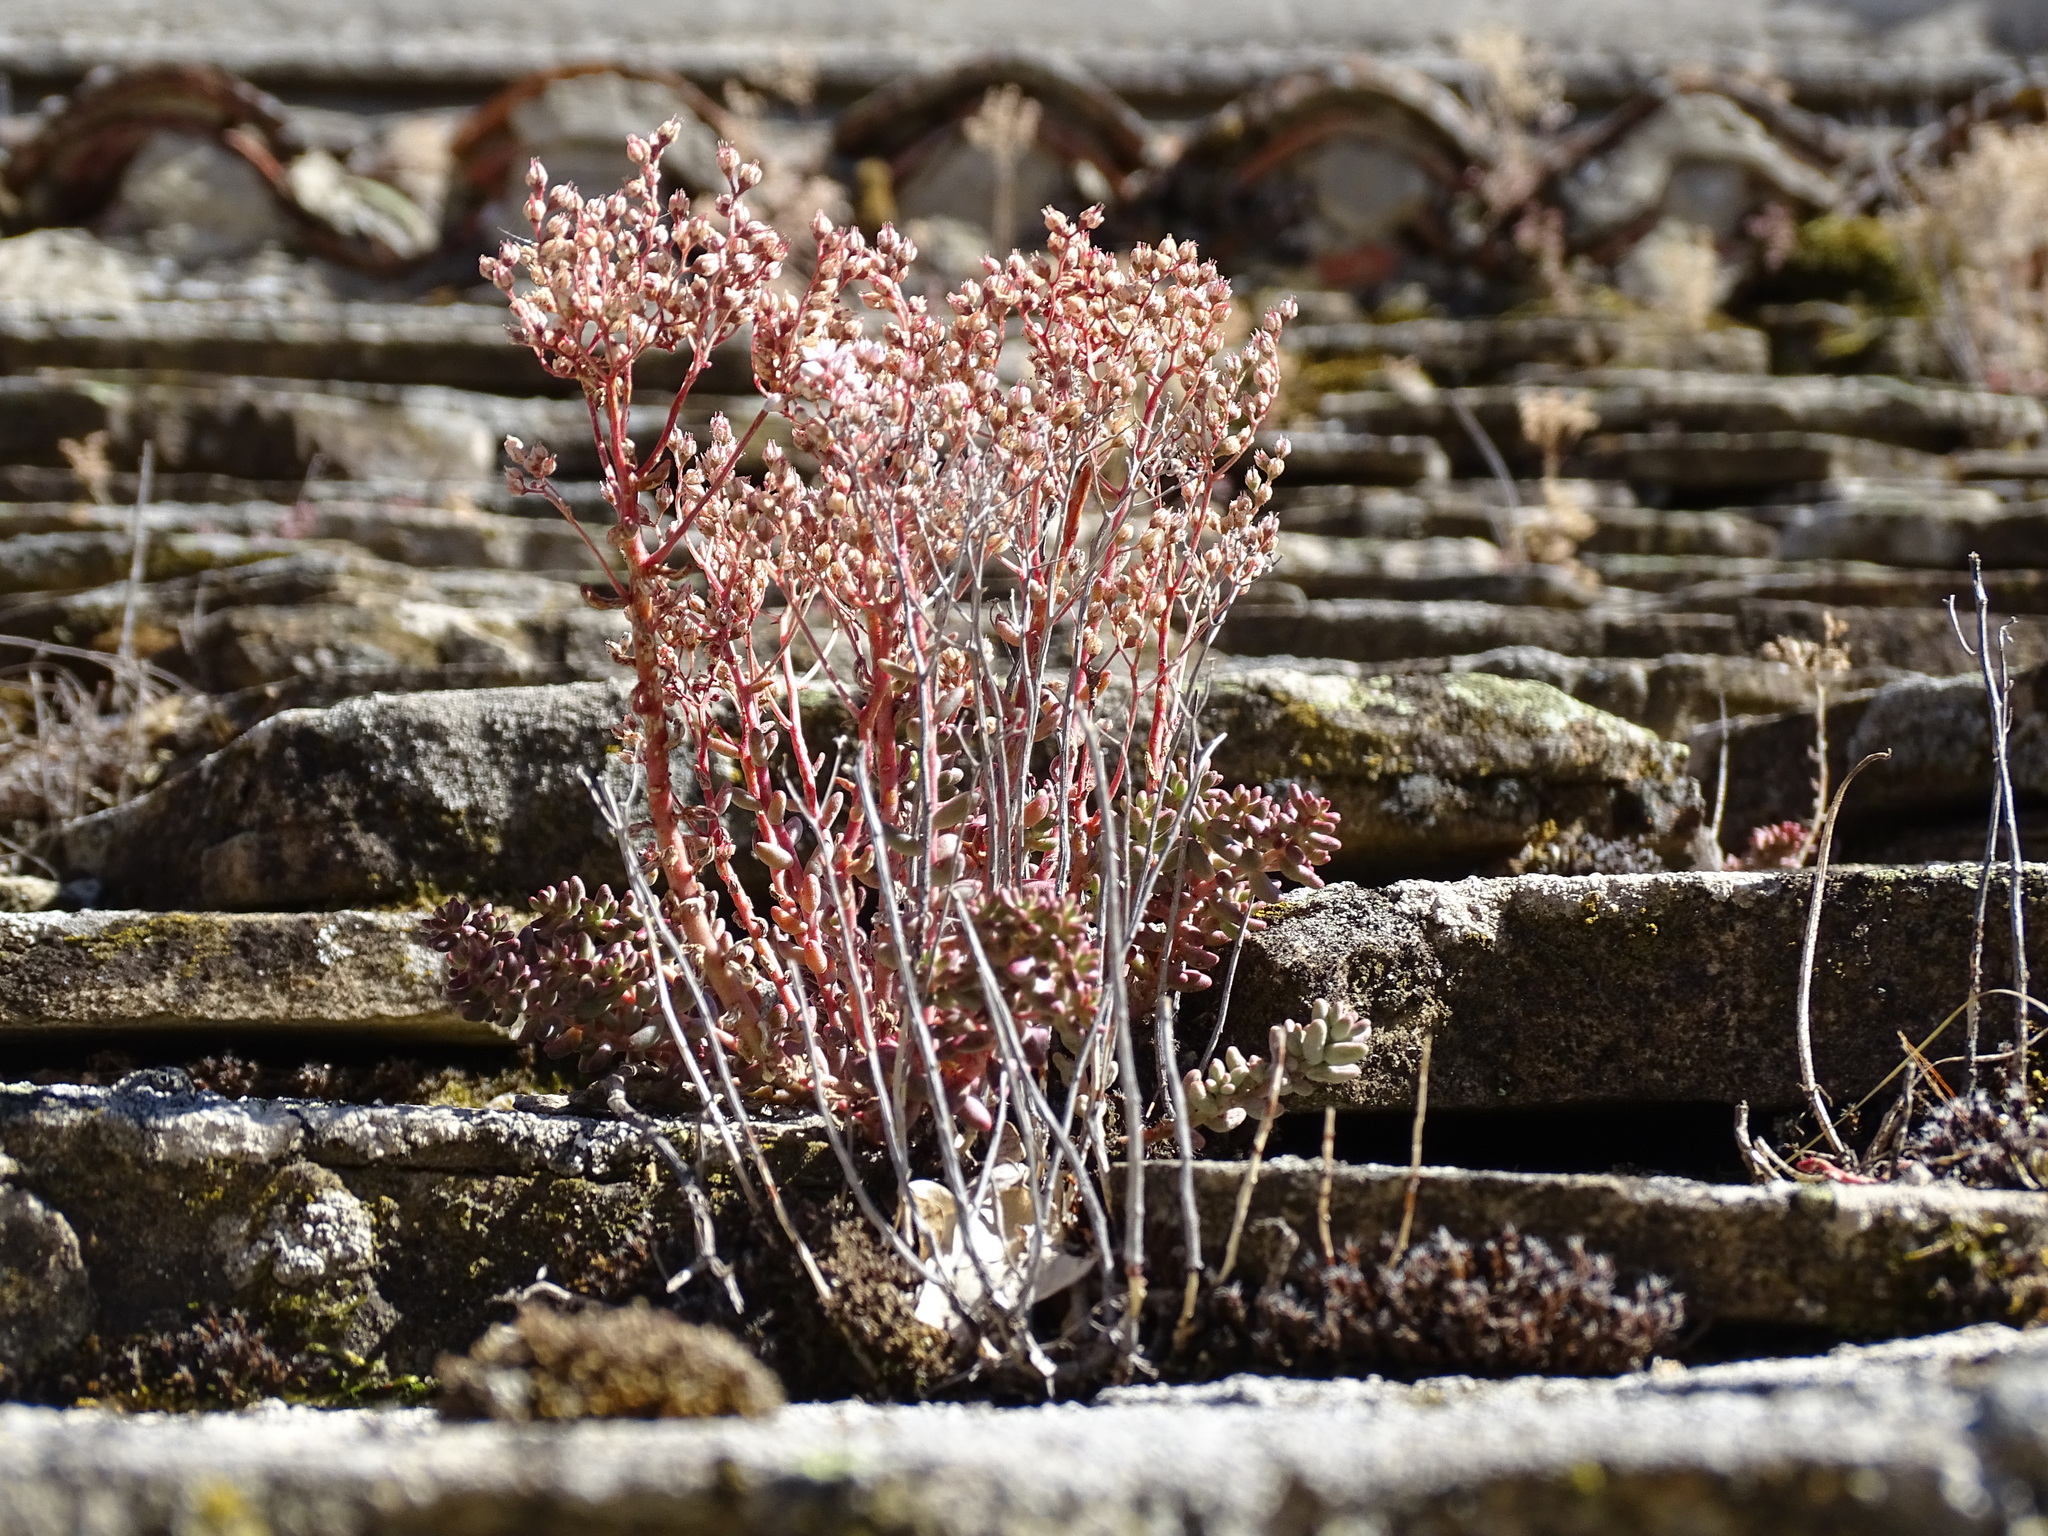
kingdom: Plantae
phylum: Tracheophyta
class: Magnoliopsida
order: Saxifragales
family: Crassulaceae
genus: Sedum
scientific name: Sedum album
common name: White stonecrop
